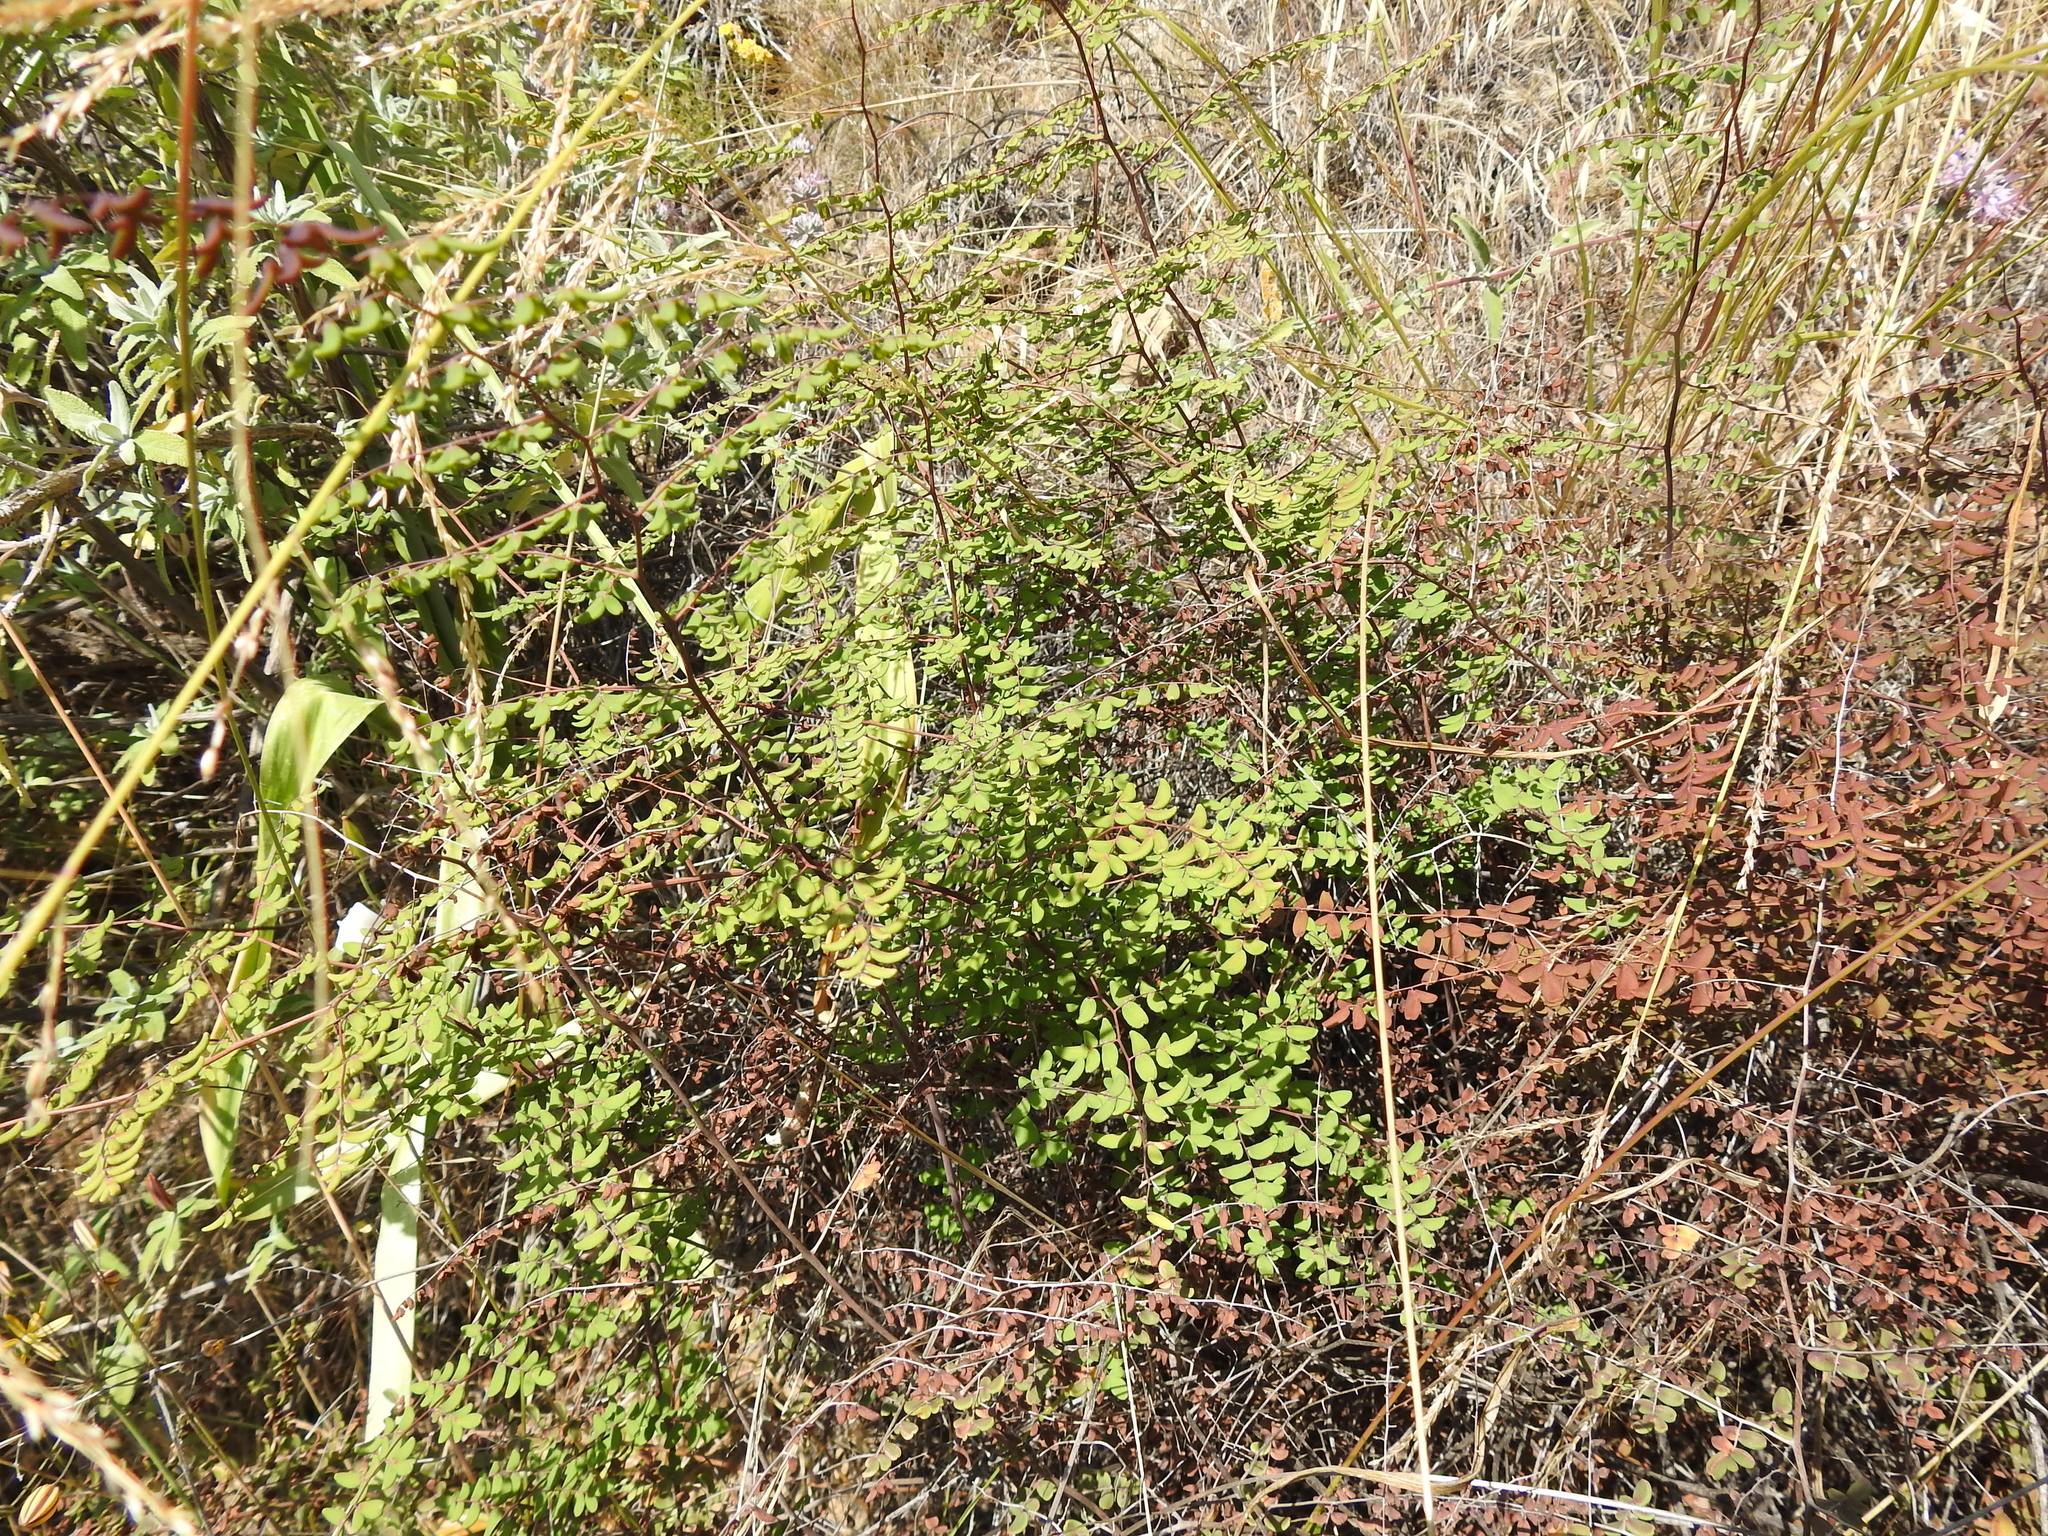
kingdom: Plantae
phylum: Tracheophyta
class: Polypodiopsida
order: Polypodiales
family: Pteridaceae
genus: Pellaea
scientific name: Pellaea andromedifolia
